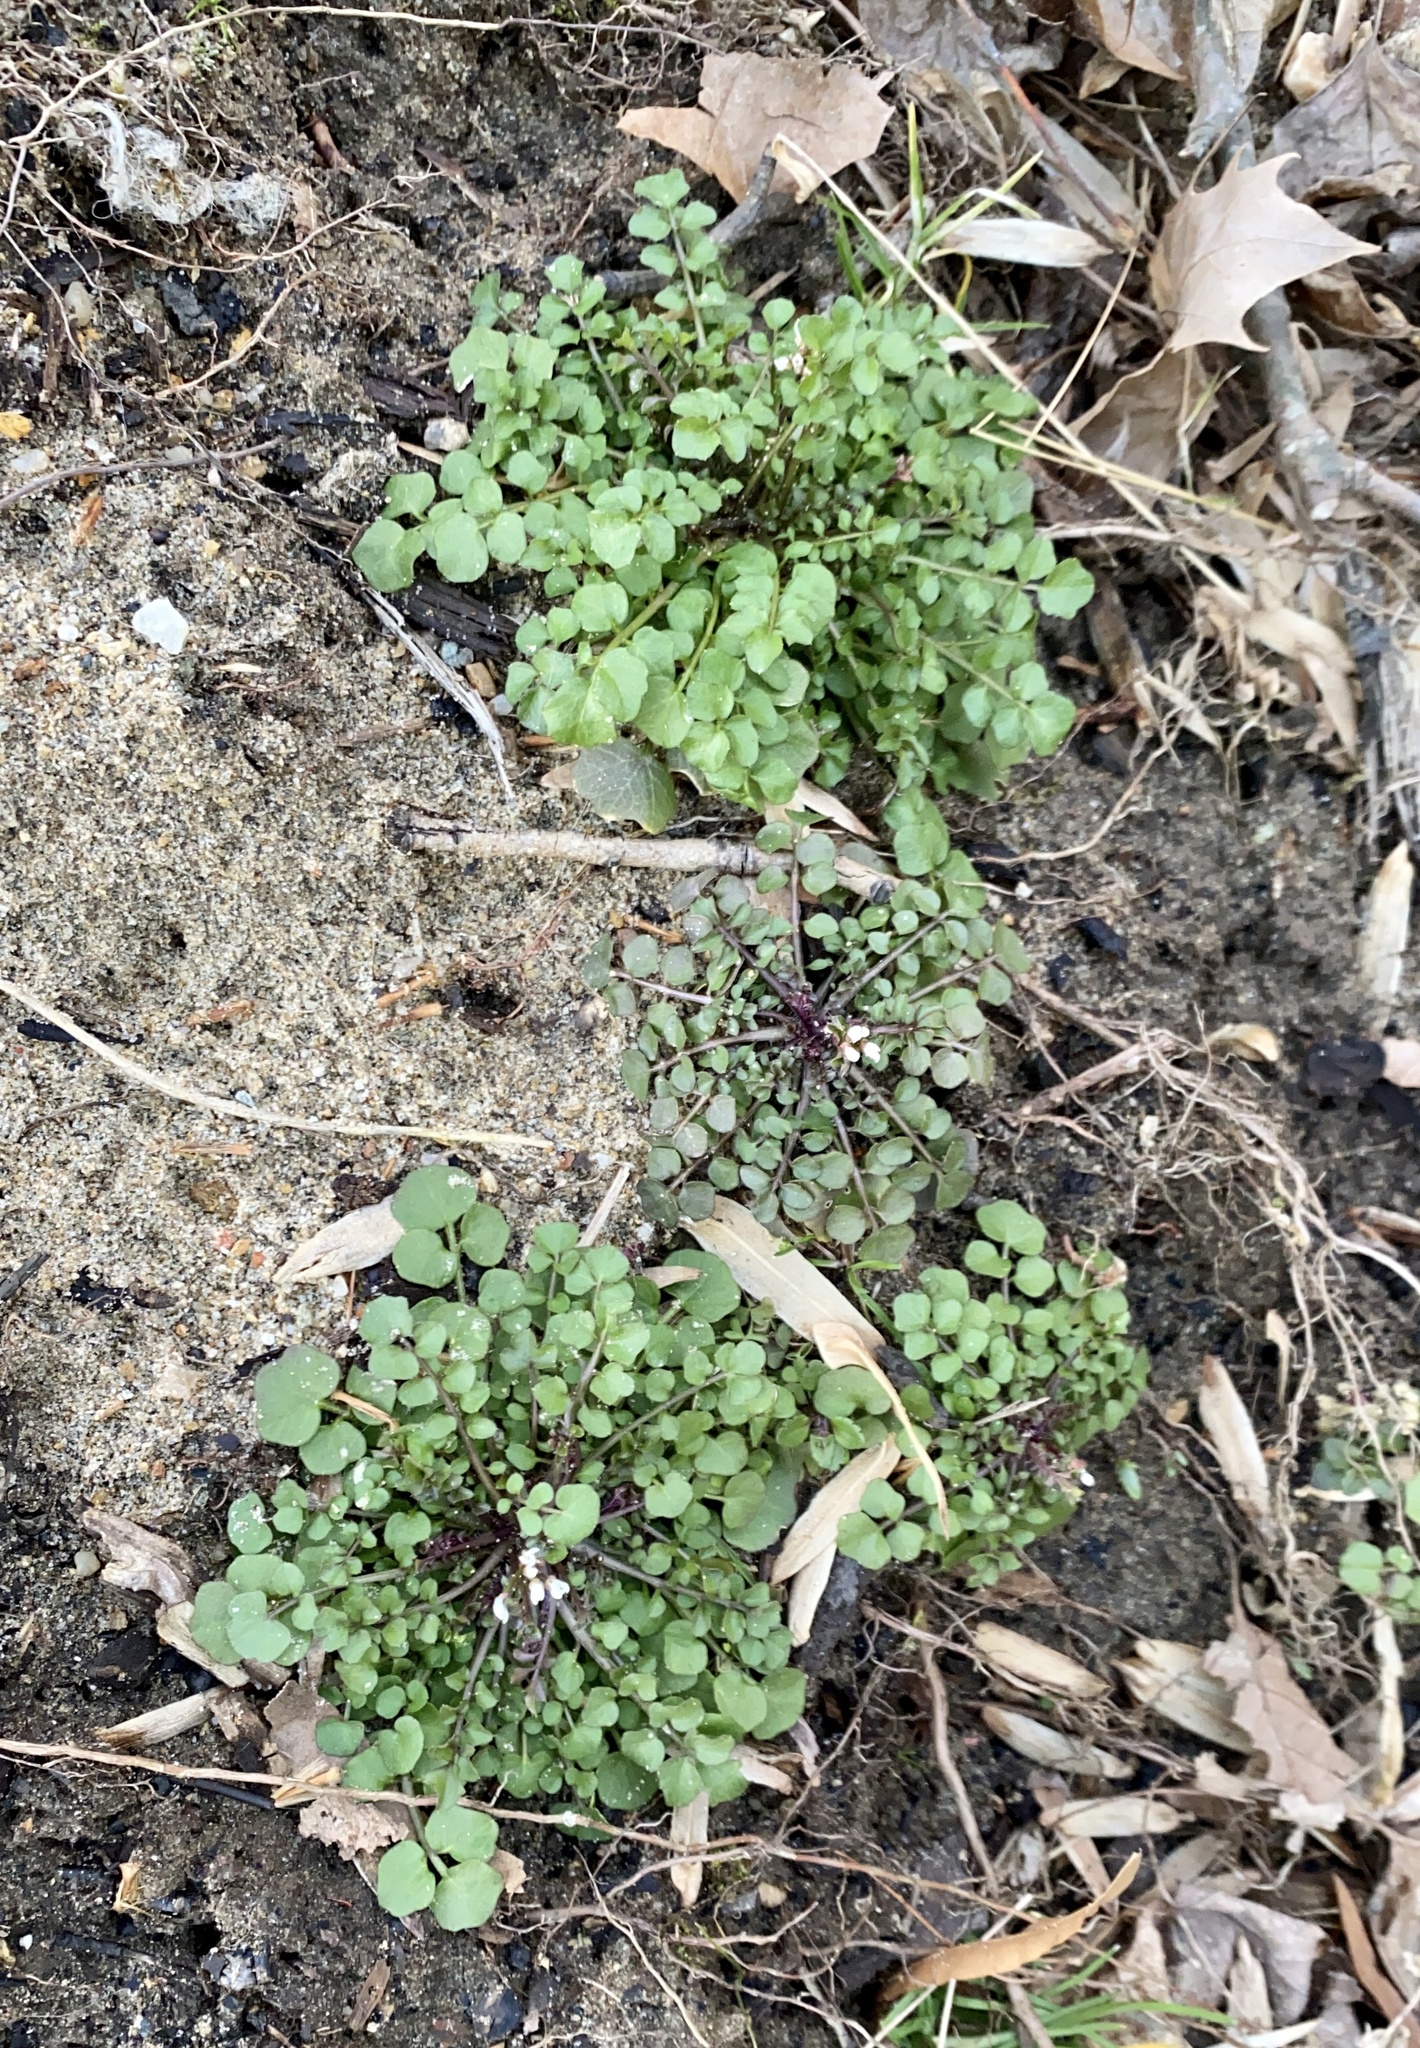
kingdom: Plantae
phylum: Tracheophyta
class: Magnoliopsida
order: Brassicales
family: Brassicaceae
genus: Cardamine
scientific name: Cardamine hirsuta
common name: Hairy bittercress
